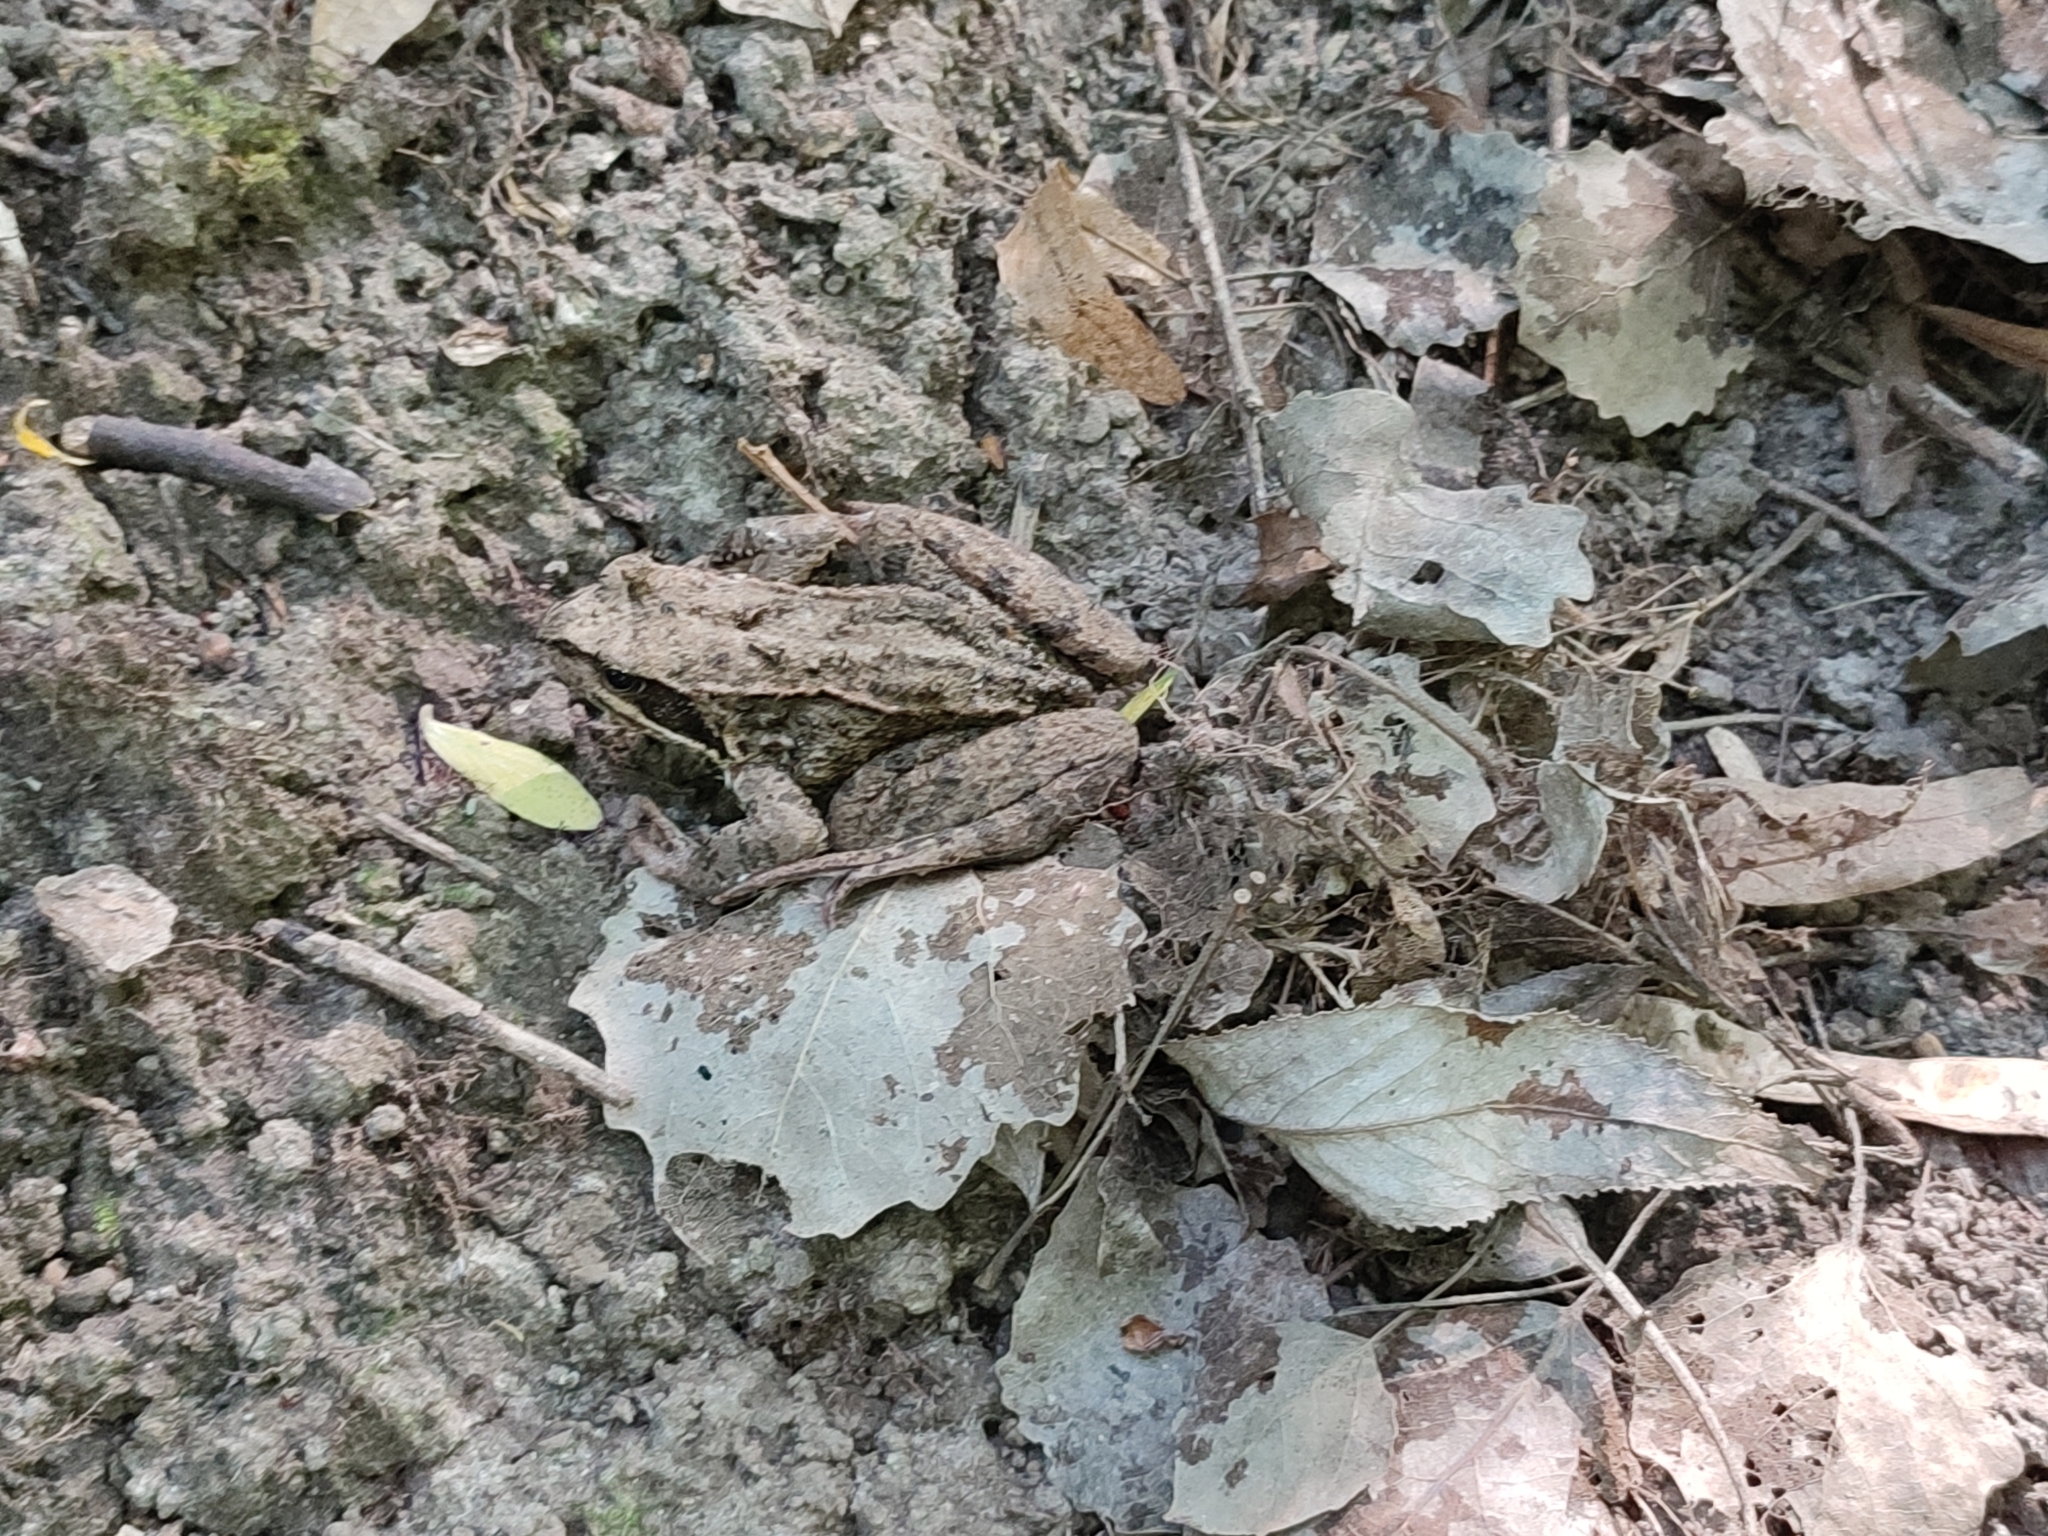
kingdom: Animalia
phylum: Chordata
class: Amphibia
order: Anura
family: Ranidae
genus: Rana
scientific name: Rana temporaria
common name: Common frog
